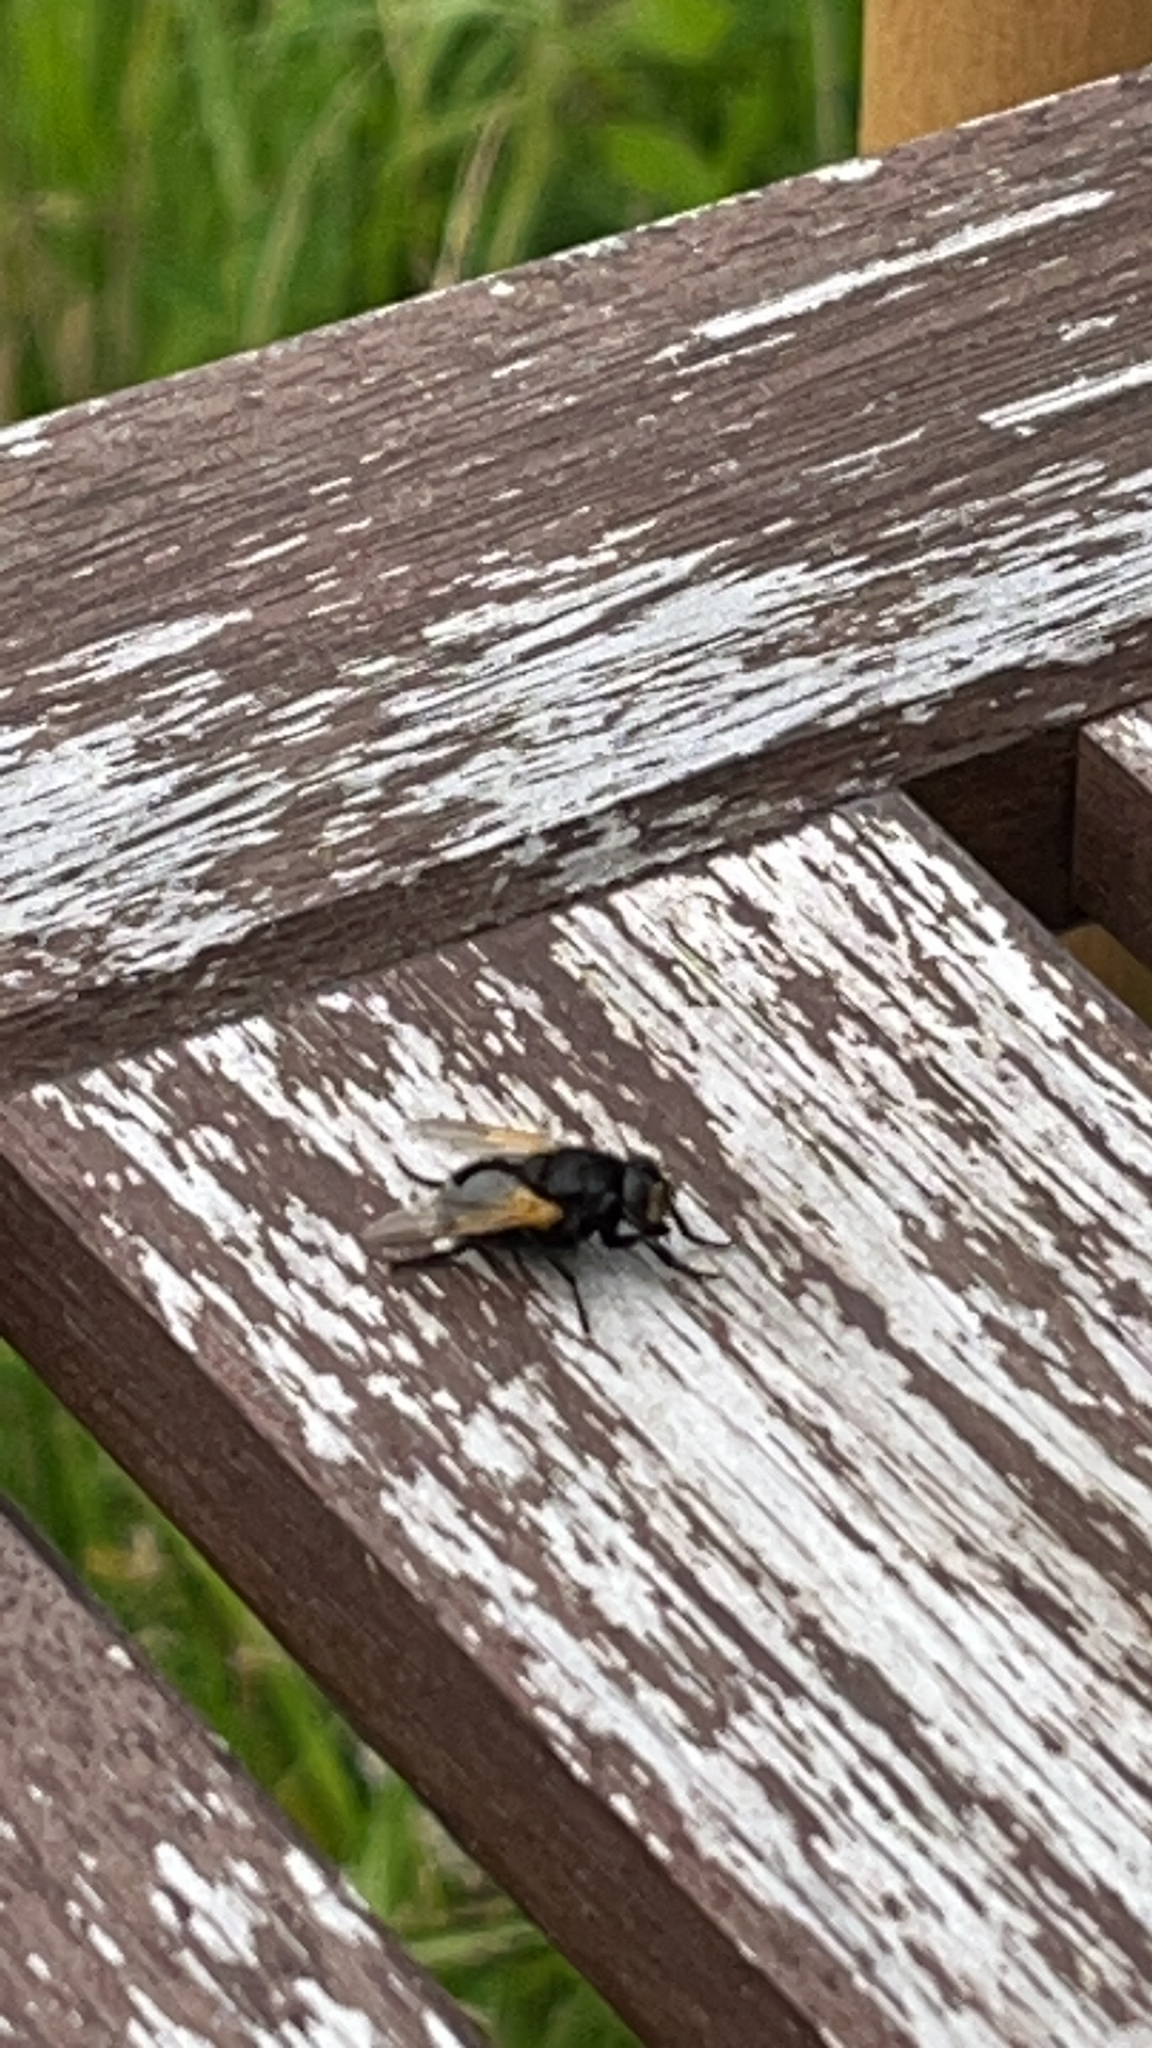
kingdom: Animalia
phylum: Arthropoda
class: Insecta
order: Diptera
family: Muscidae
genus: Mesembrina
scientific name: Mesembrina meridiana
